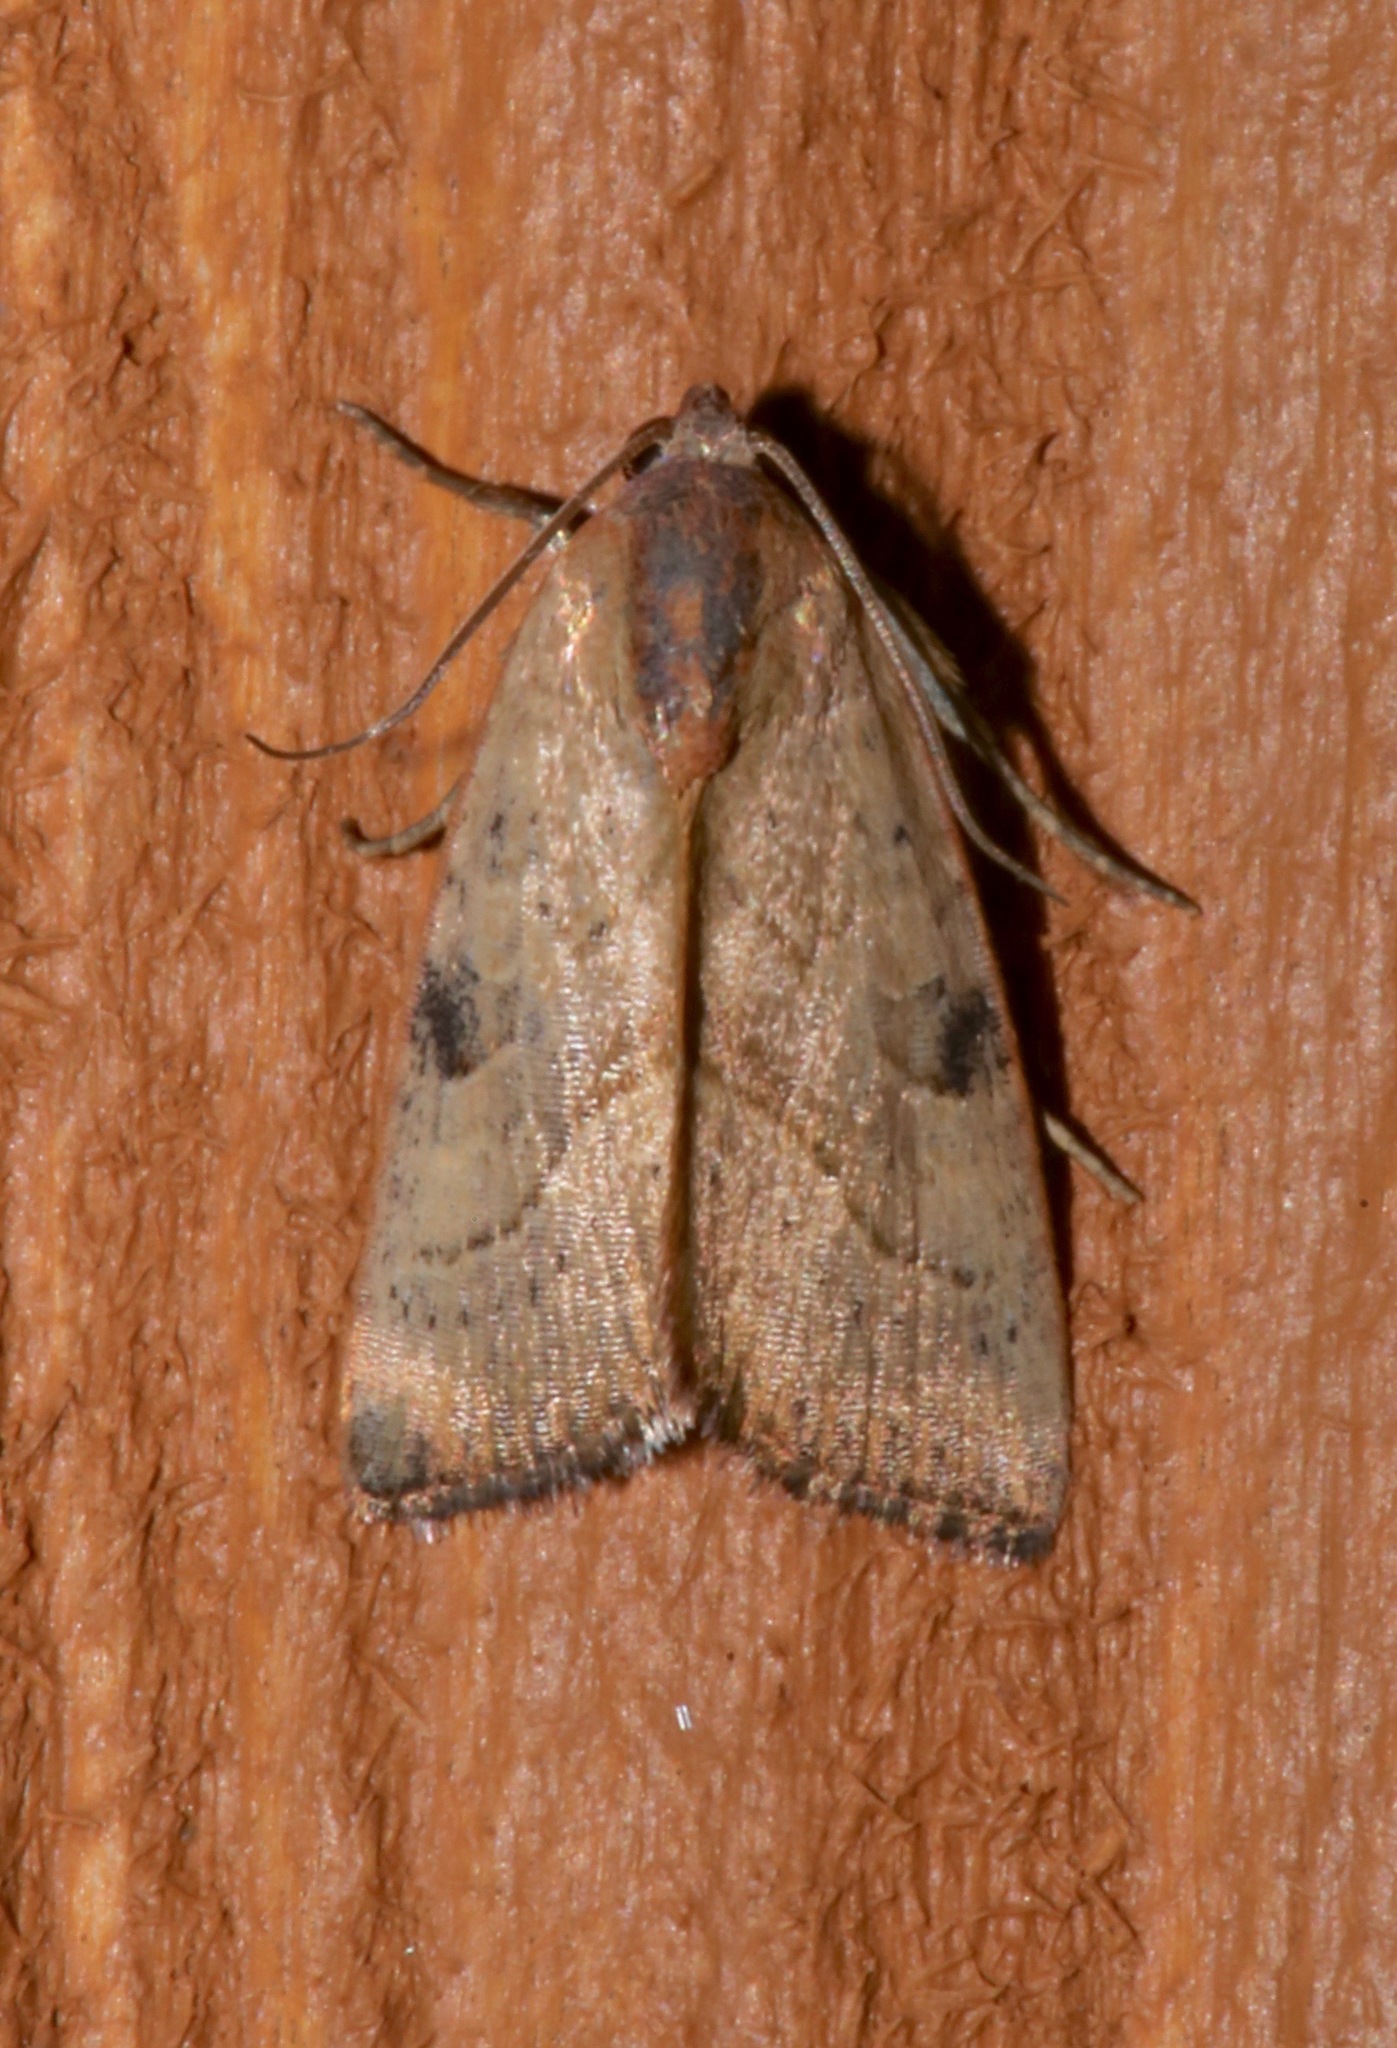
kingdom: Animalia
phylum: Arthropoda
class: Insecta
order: Lepidoptera
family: Noctuidae
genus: Galgula
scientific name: Galgula partita
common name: Wedgeling
